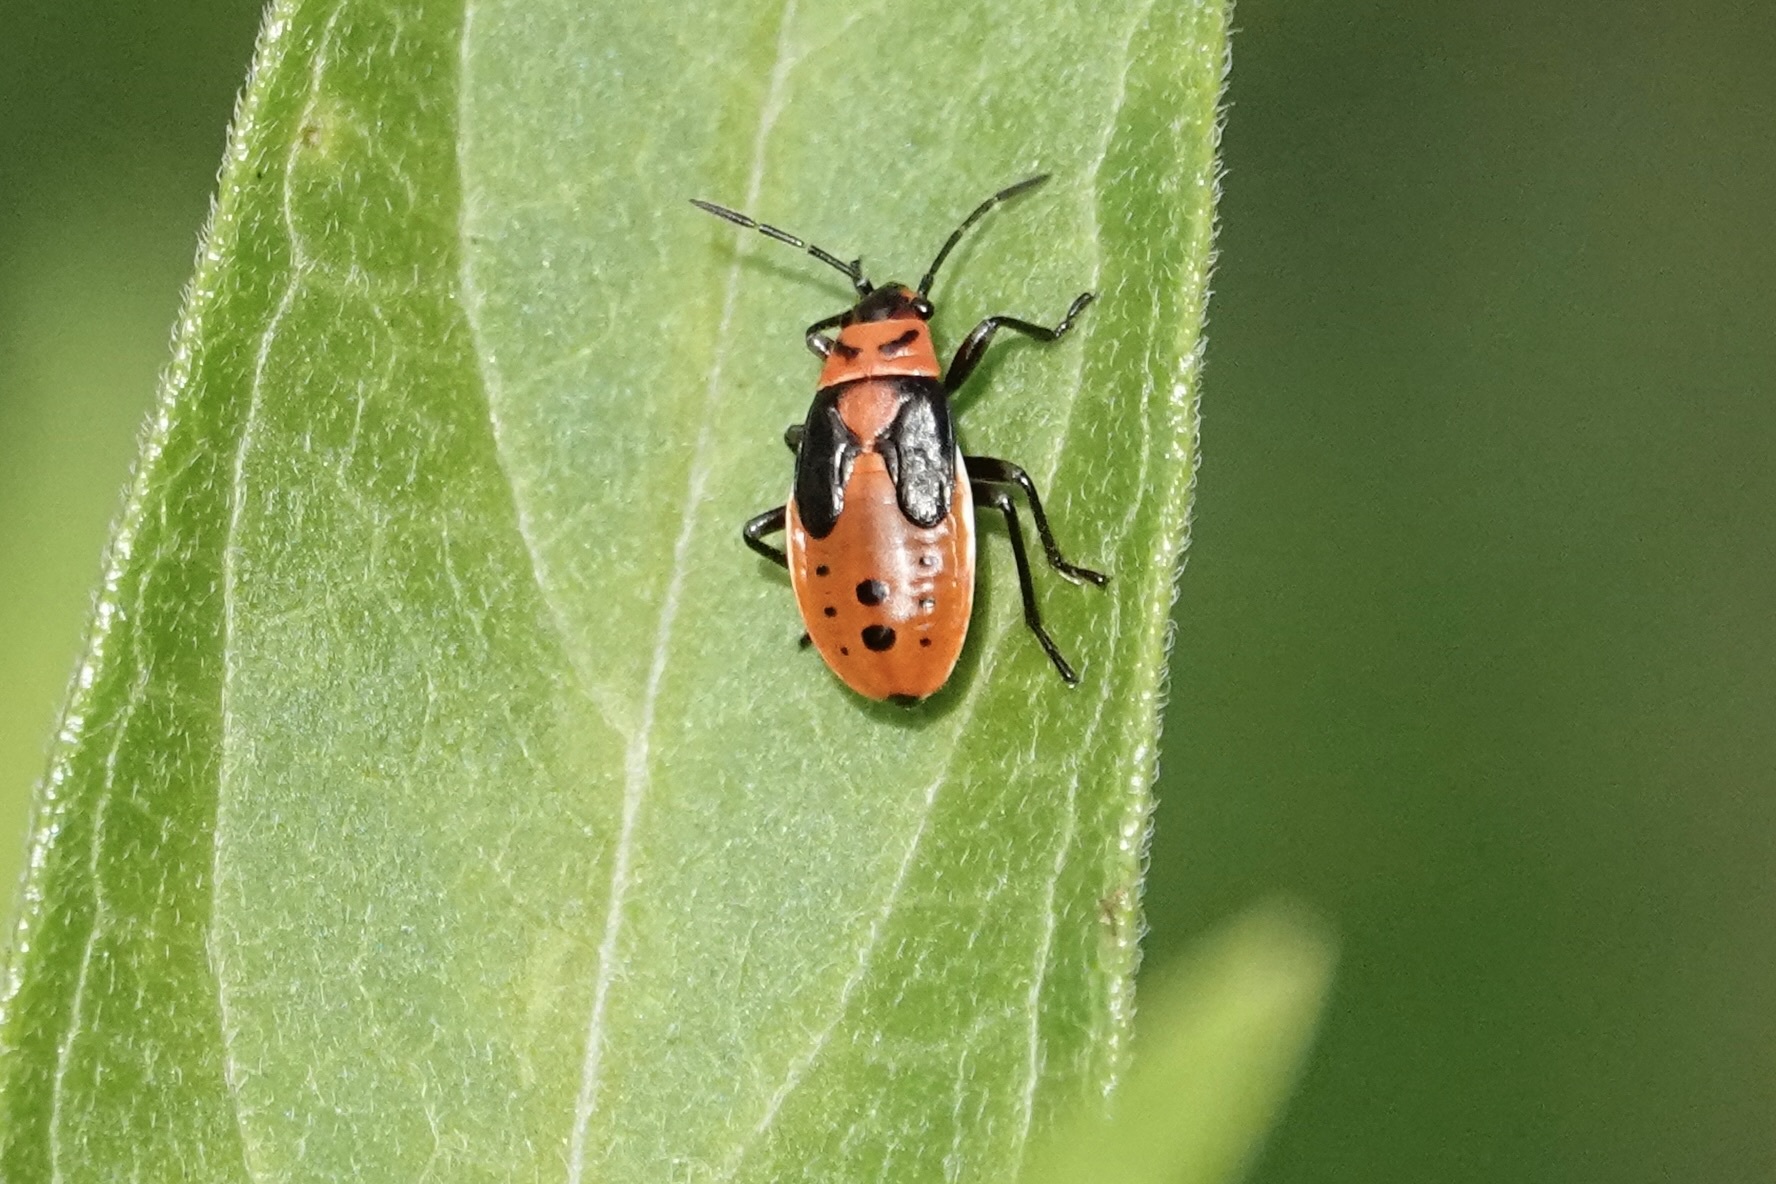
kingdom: Animalia
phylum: Arthropoda
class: Insecta
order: Hemiptera
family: Lygaeidae
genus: Lygaeus
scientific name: Lygaeus kalmii
